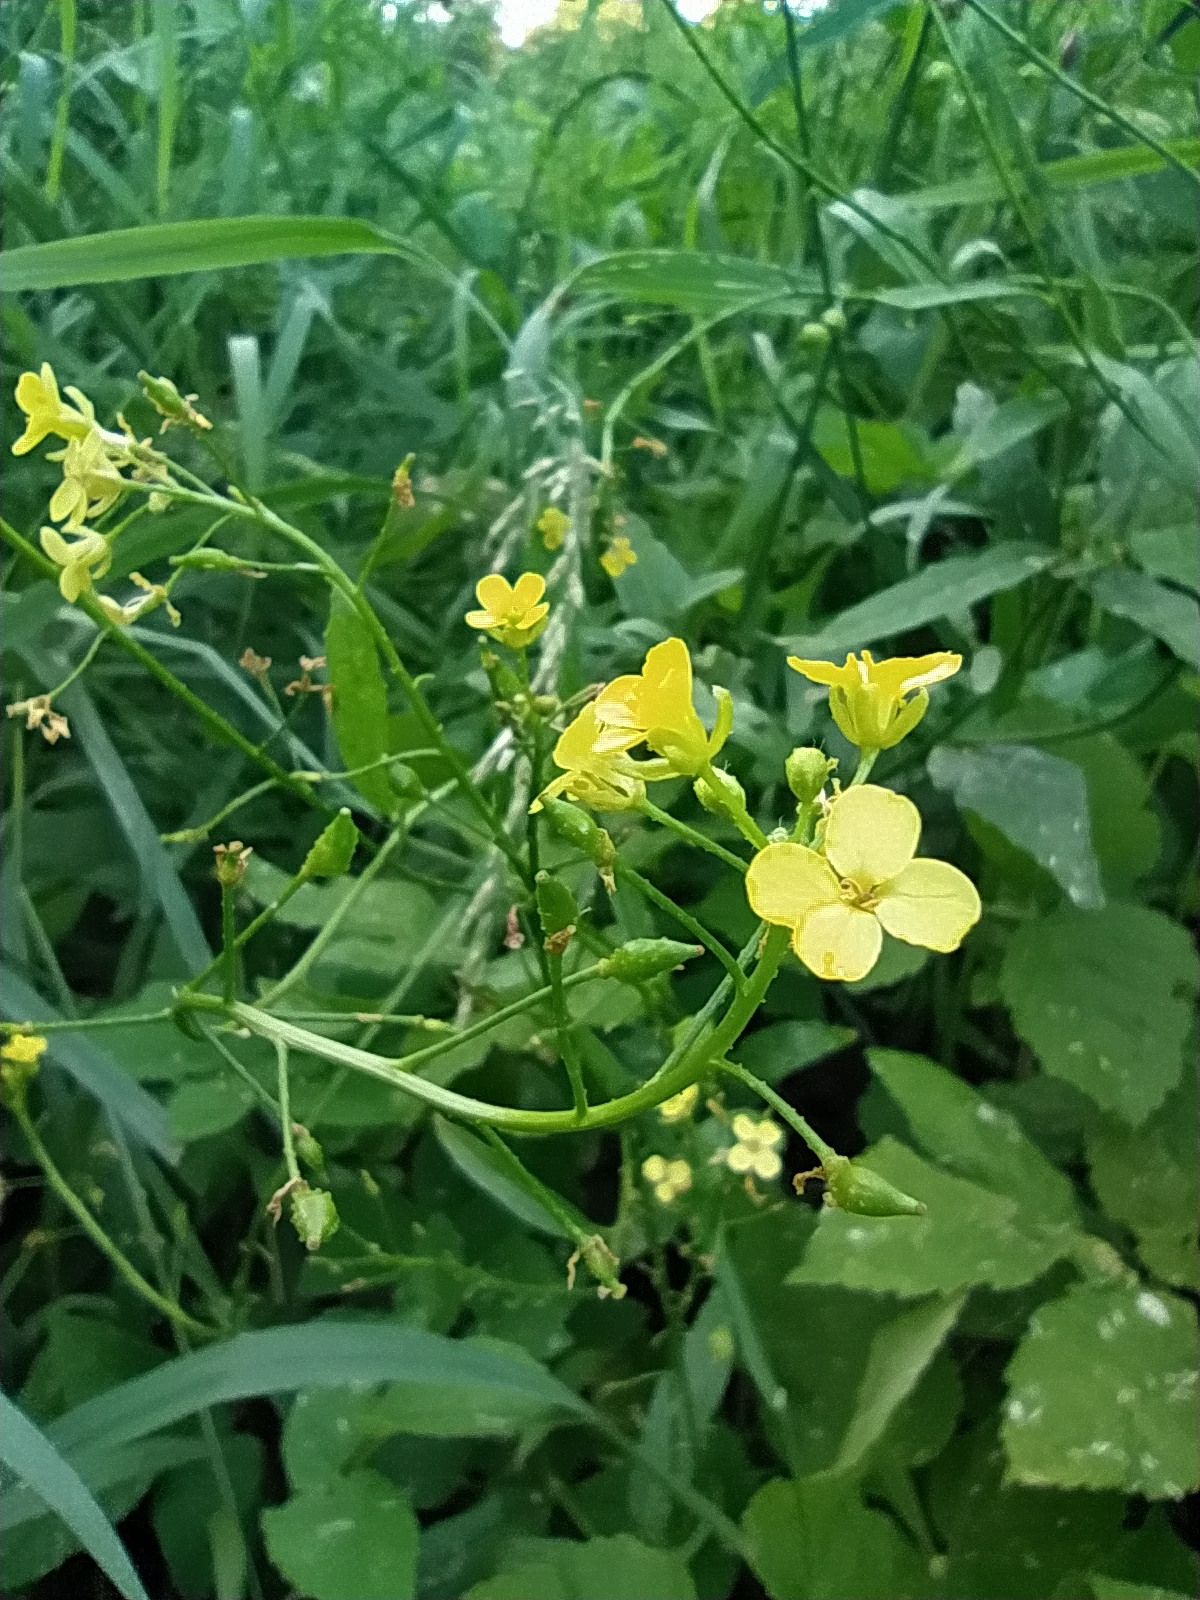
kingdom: Plantae
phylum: Tracheophyta
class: Magnoliopsida
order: Brassicales
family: Brassicaceae
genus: Bunias
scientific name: Bunias orientalis
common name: Warty-cabbage
